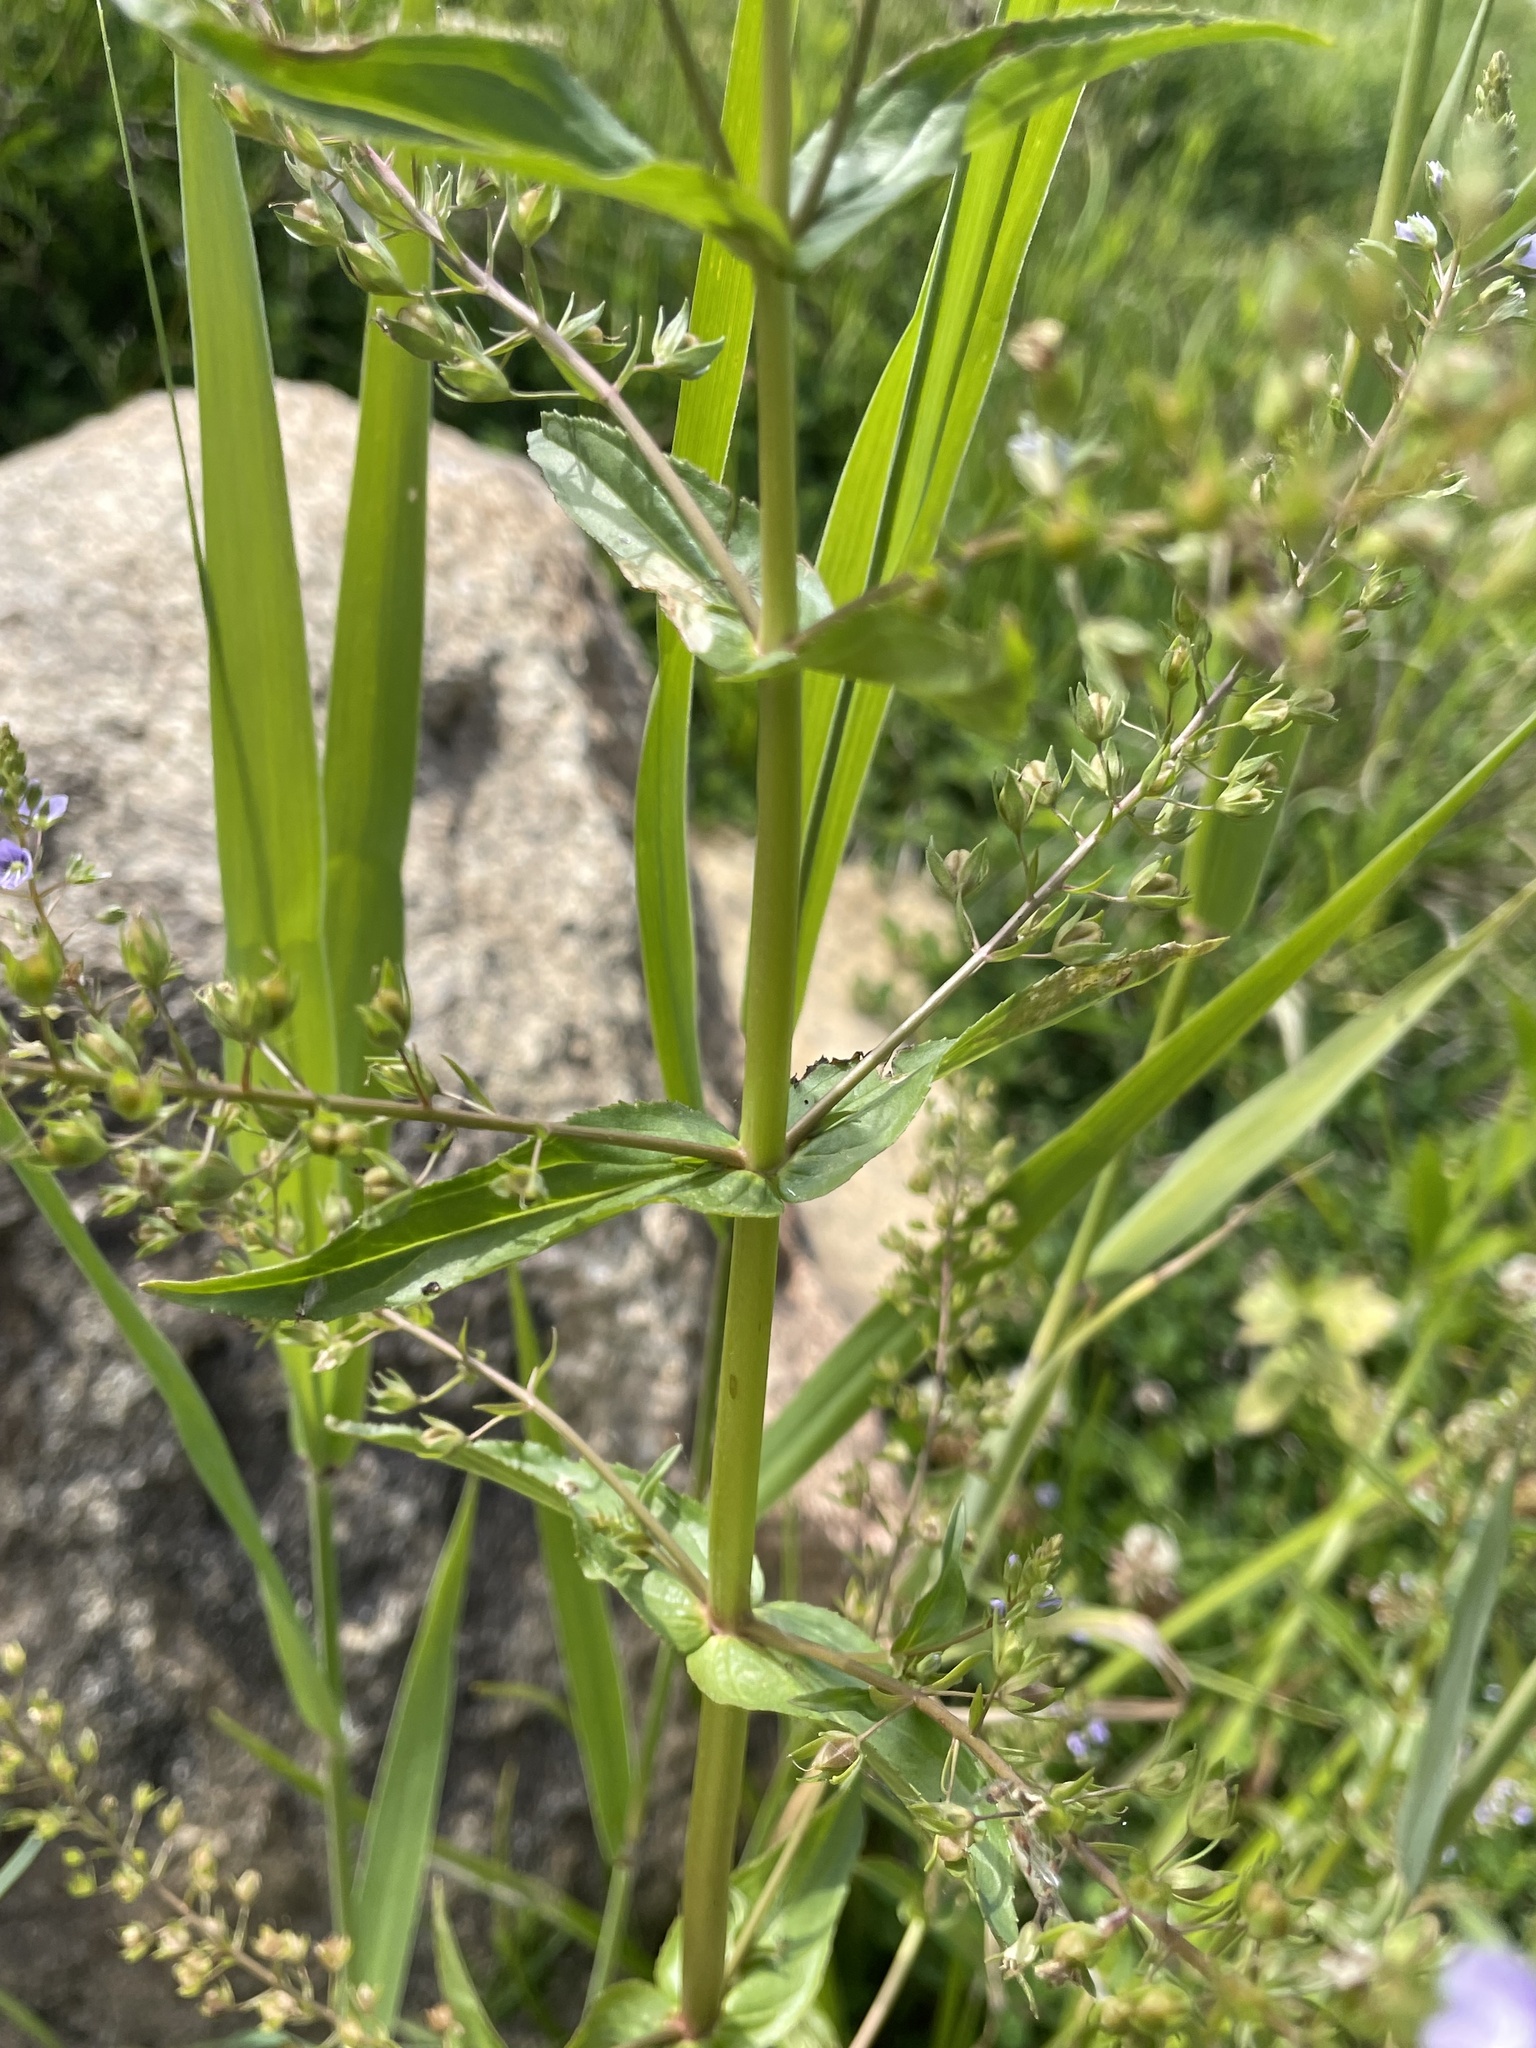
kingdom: Plantae
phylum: Tracheophyta
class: Magnoliopsida
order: Lamiales
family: Plantaginaceae
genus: Veronica
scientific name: Veronica anagallis-aquatica
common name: Water speedwell
